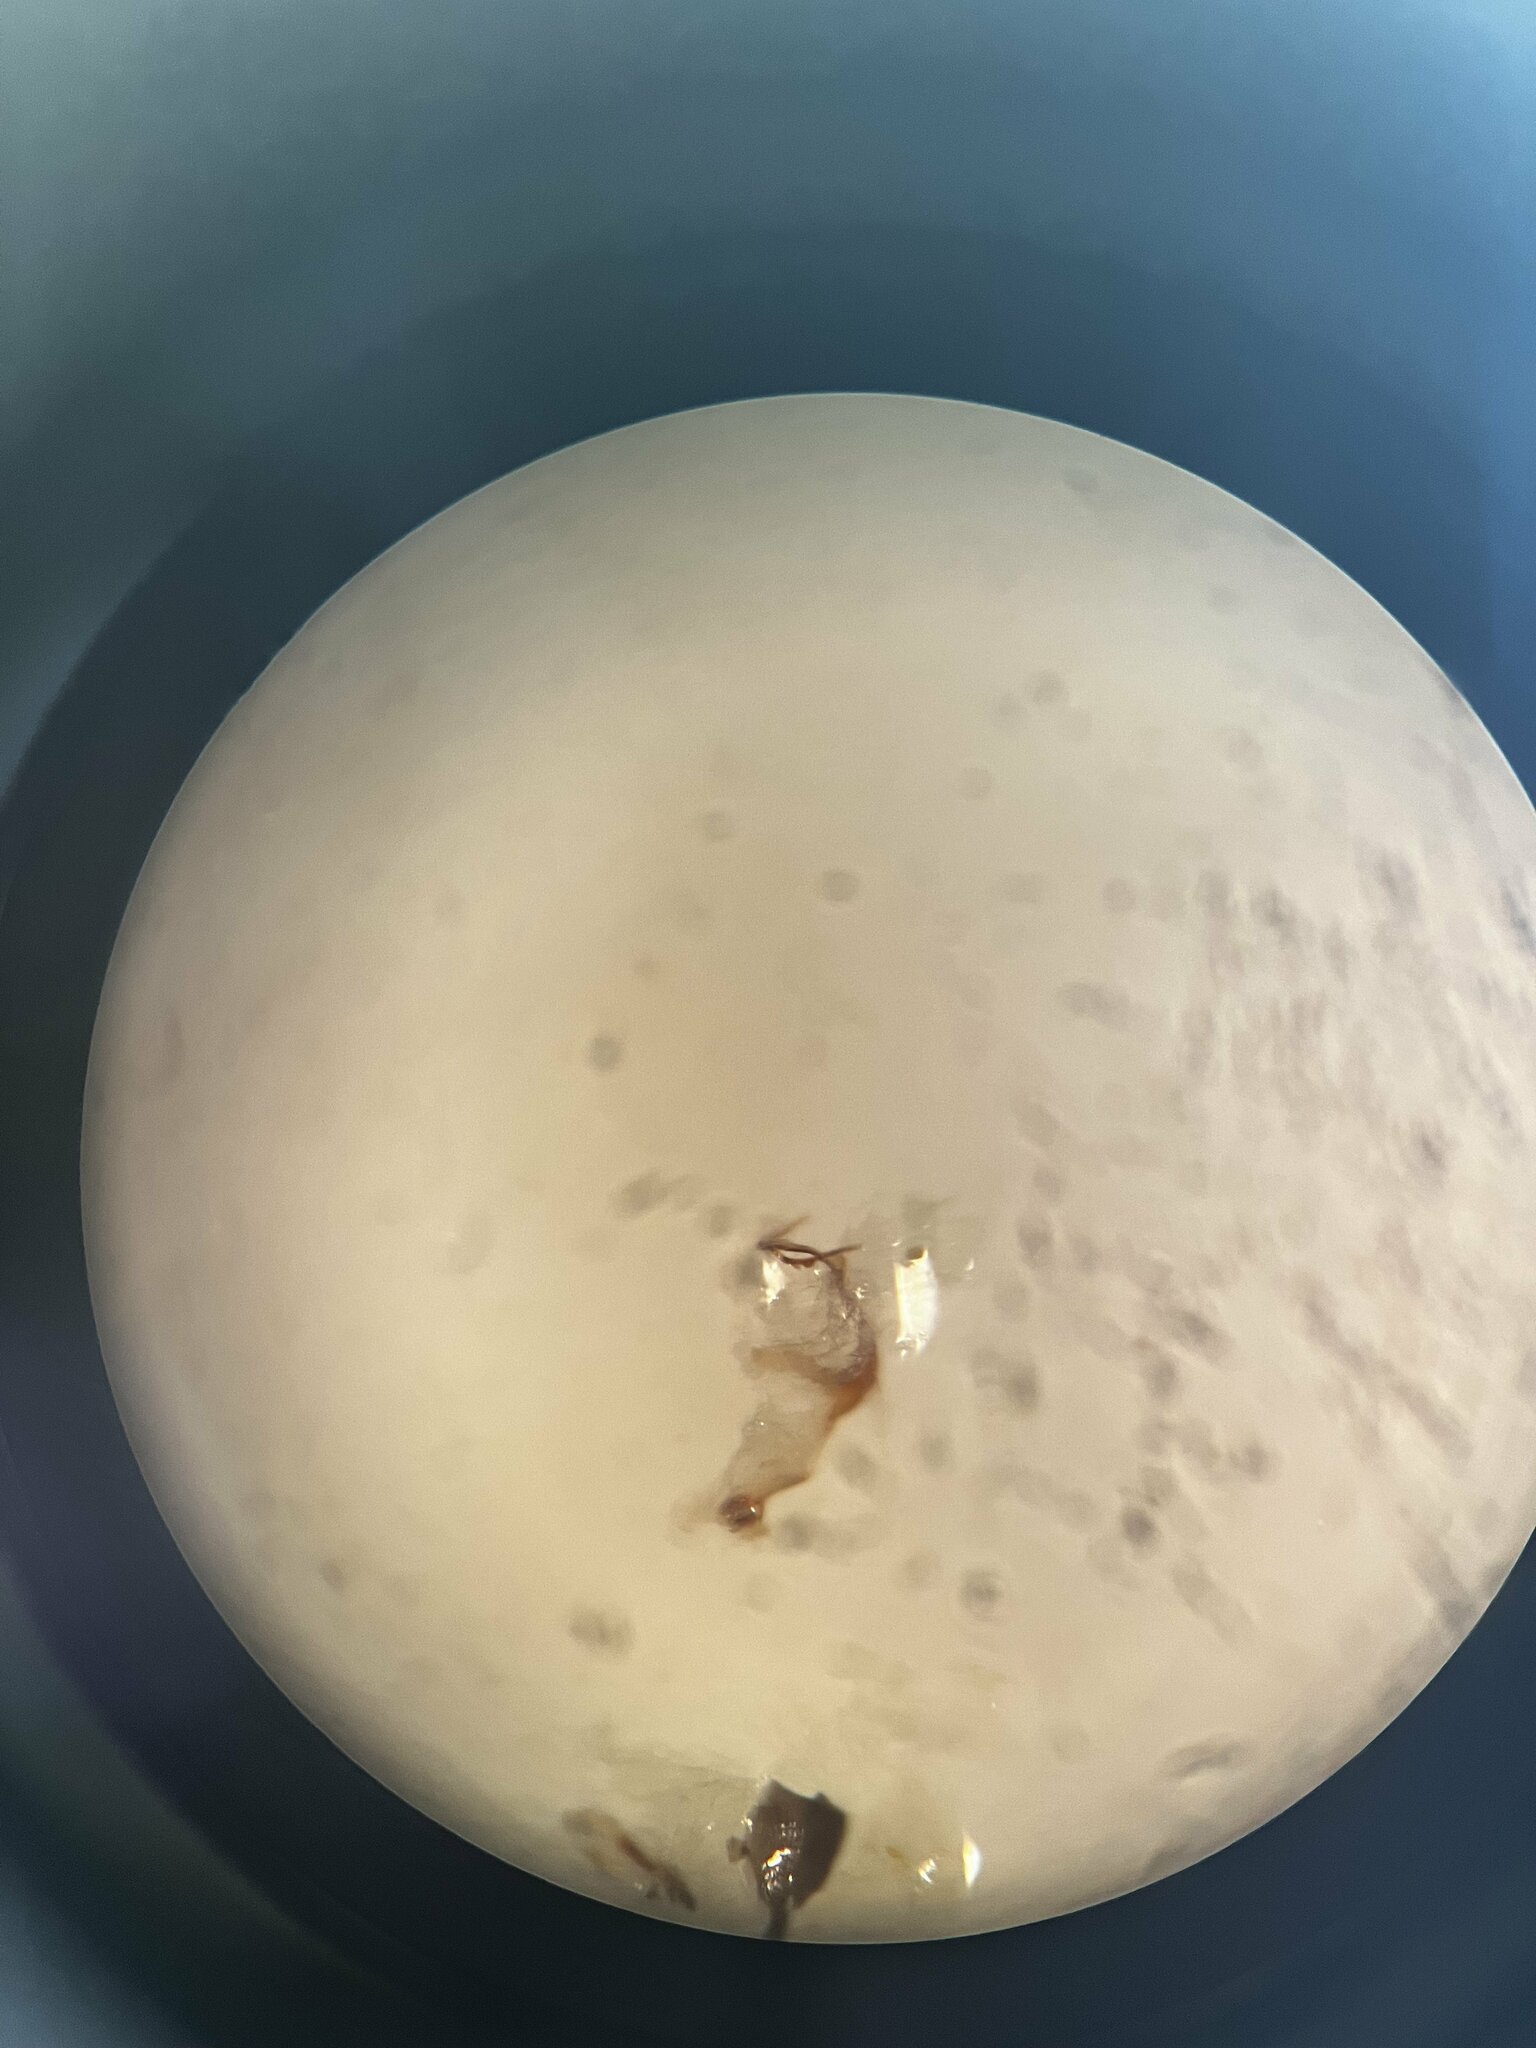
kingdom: Animalia
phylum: Arthropoda
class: Insecta
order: Hemiptera
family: Cicadellidae
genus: Eupteryx
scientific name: Eupteryx cyclops
